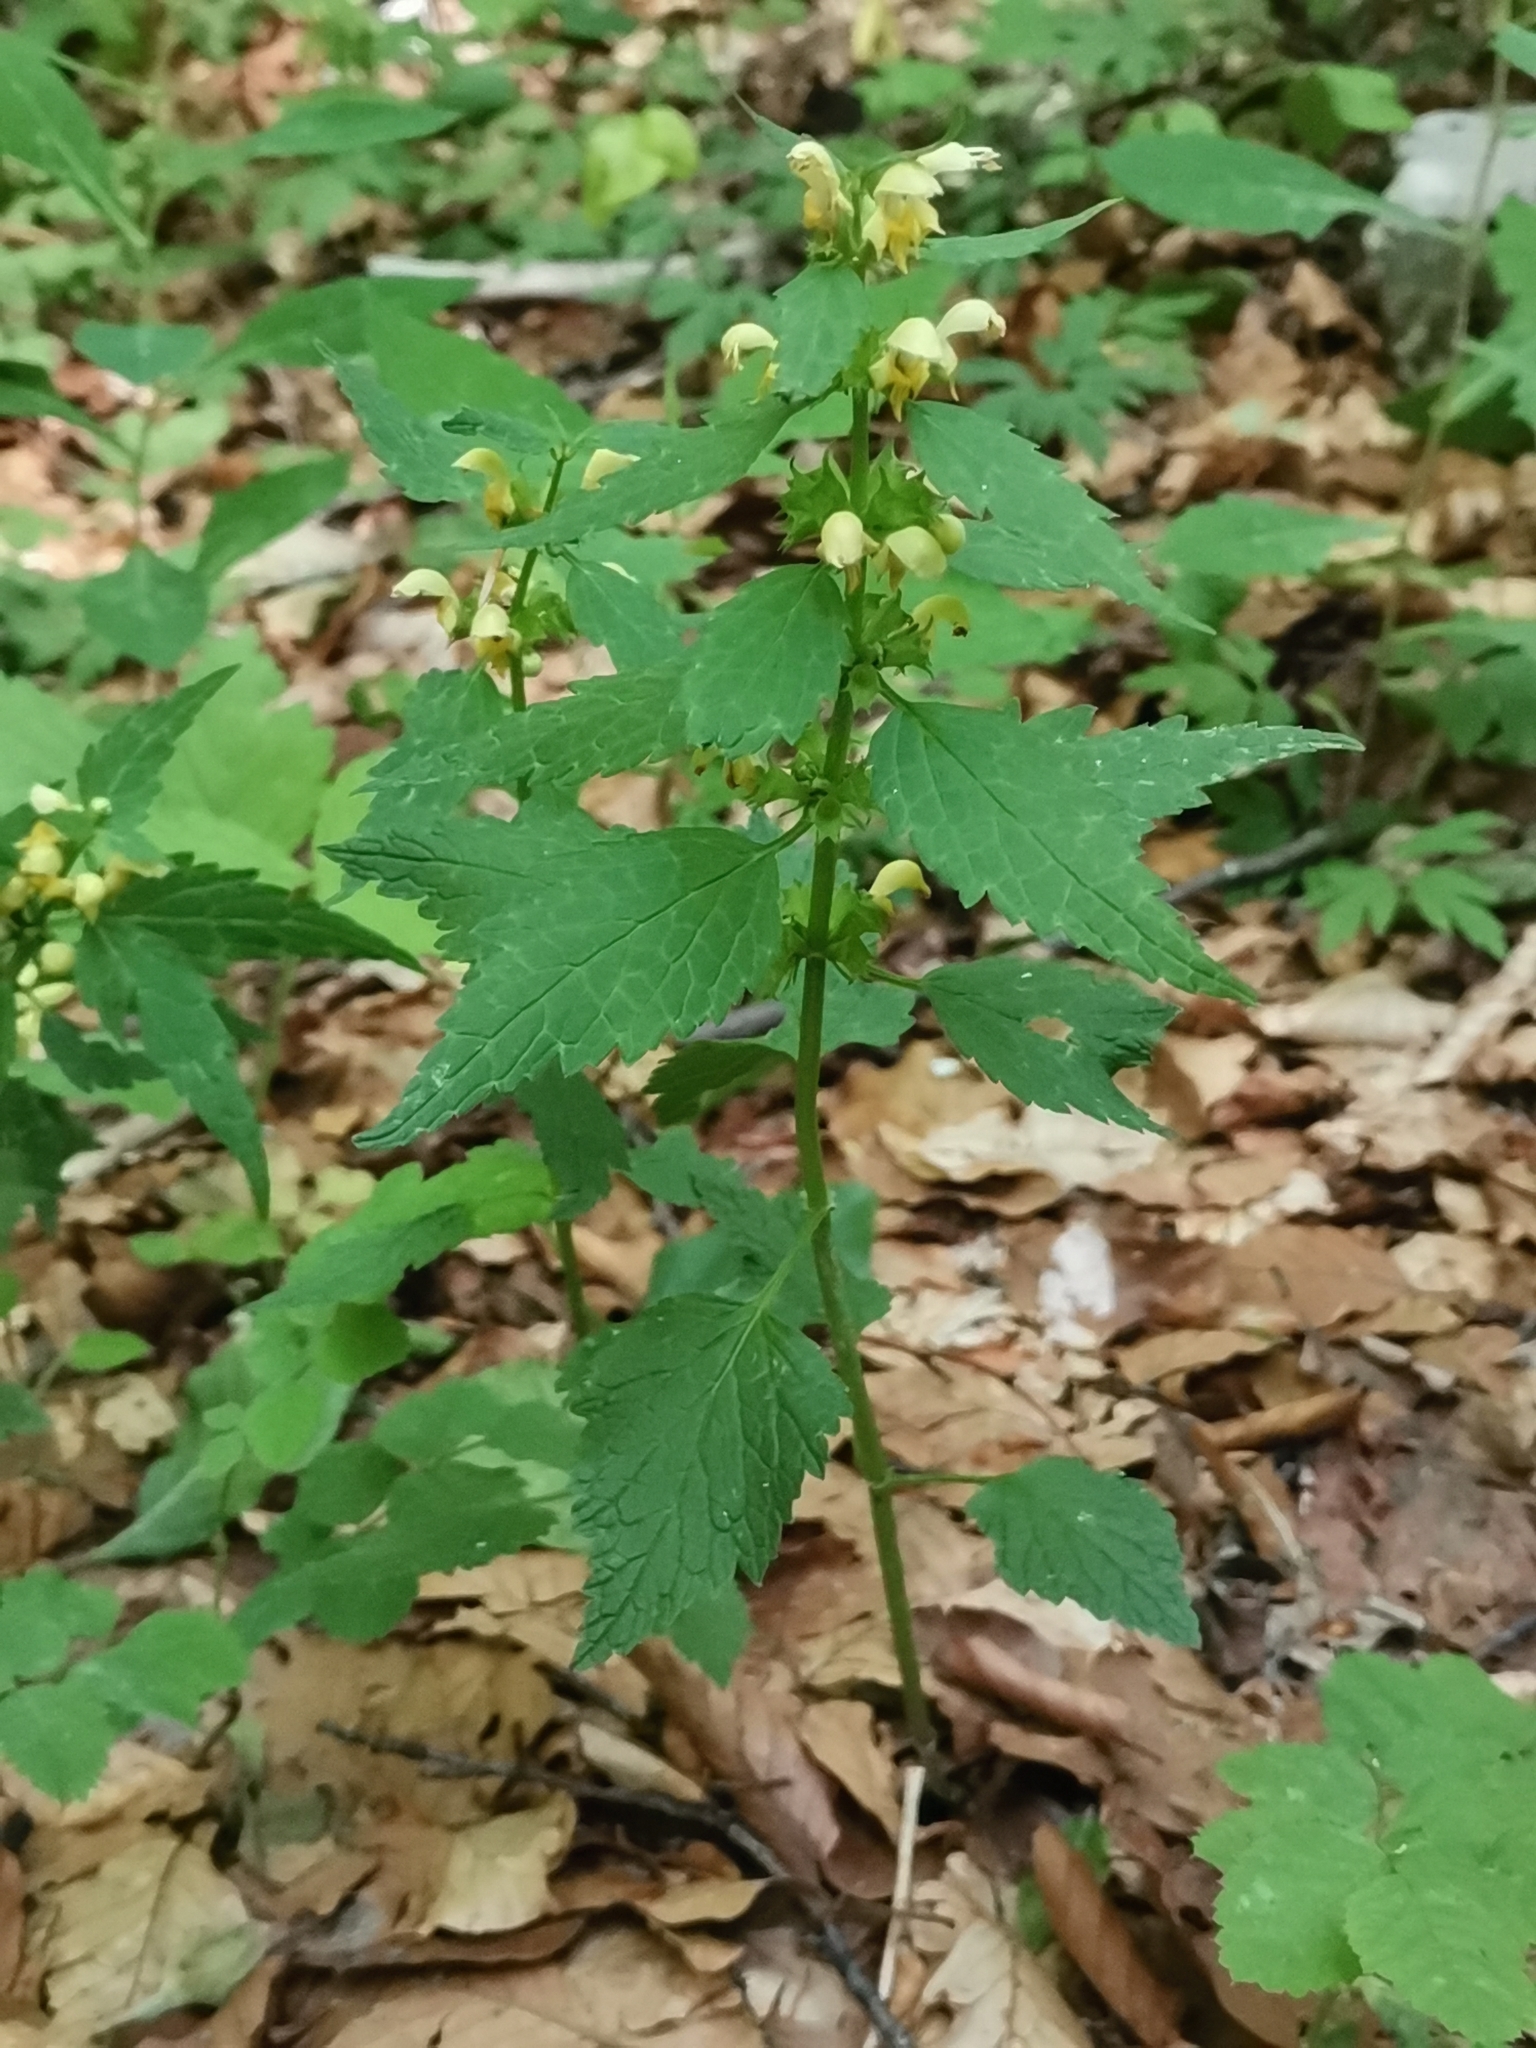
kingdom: Plantae
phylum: Tracheophyta
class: Magnoliopsida
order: Lamiales
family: Lamiaceae
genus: Lamium
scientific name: Lamium galeobdolon
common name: Yellow archangel
